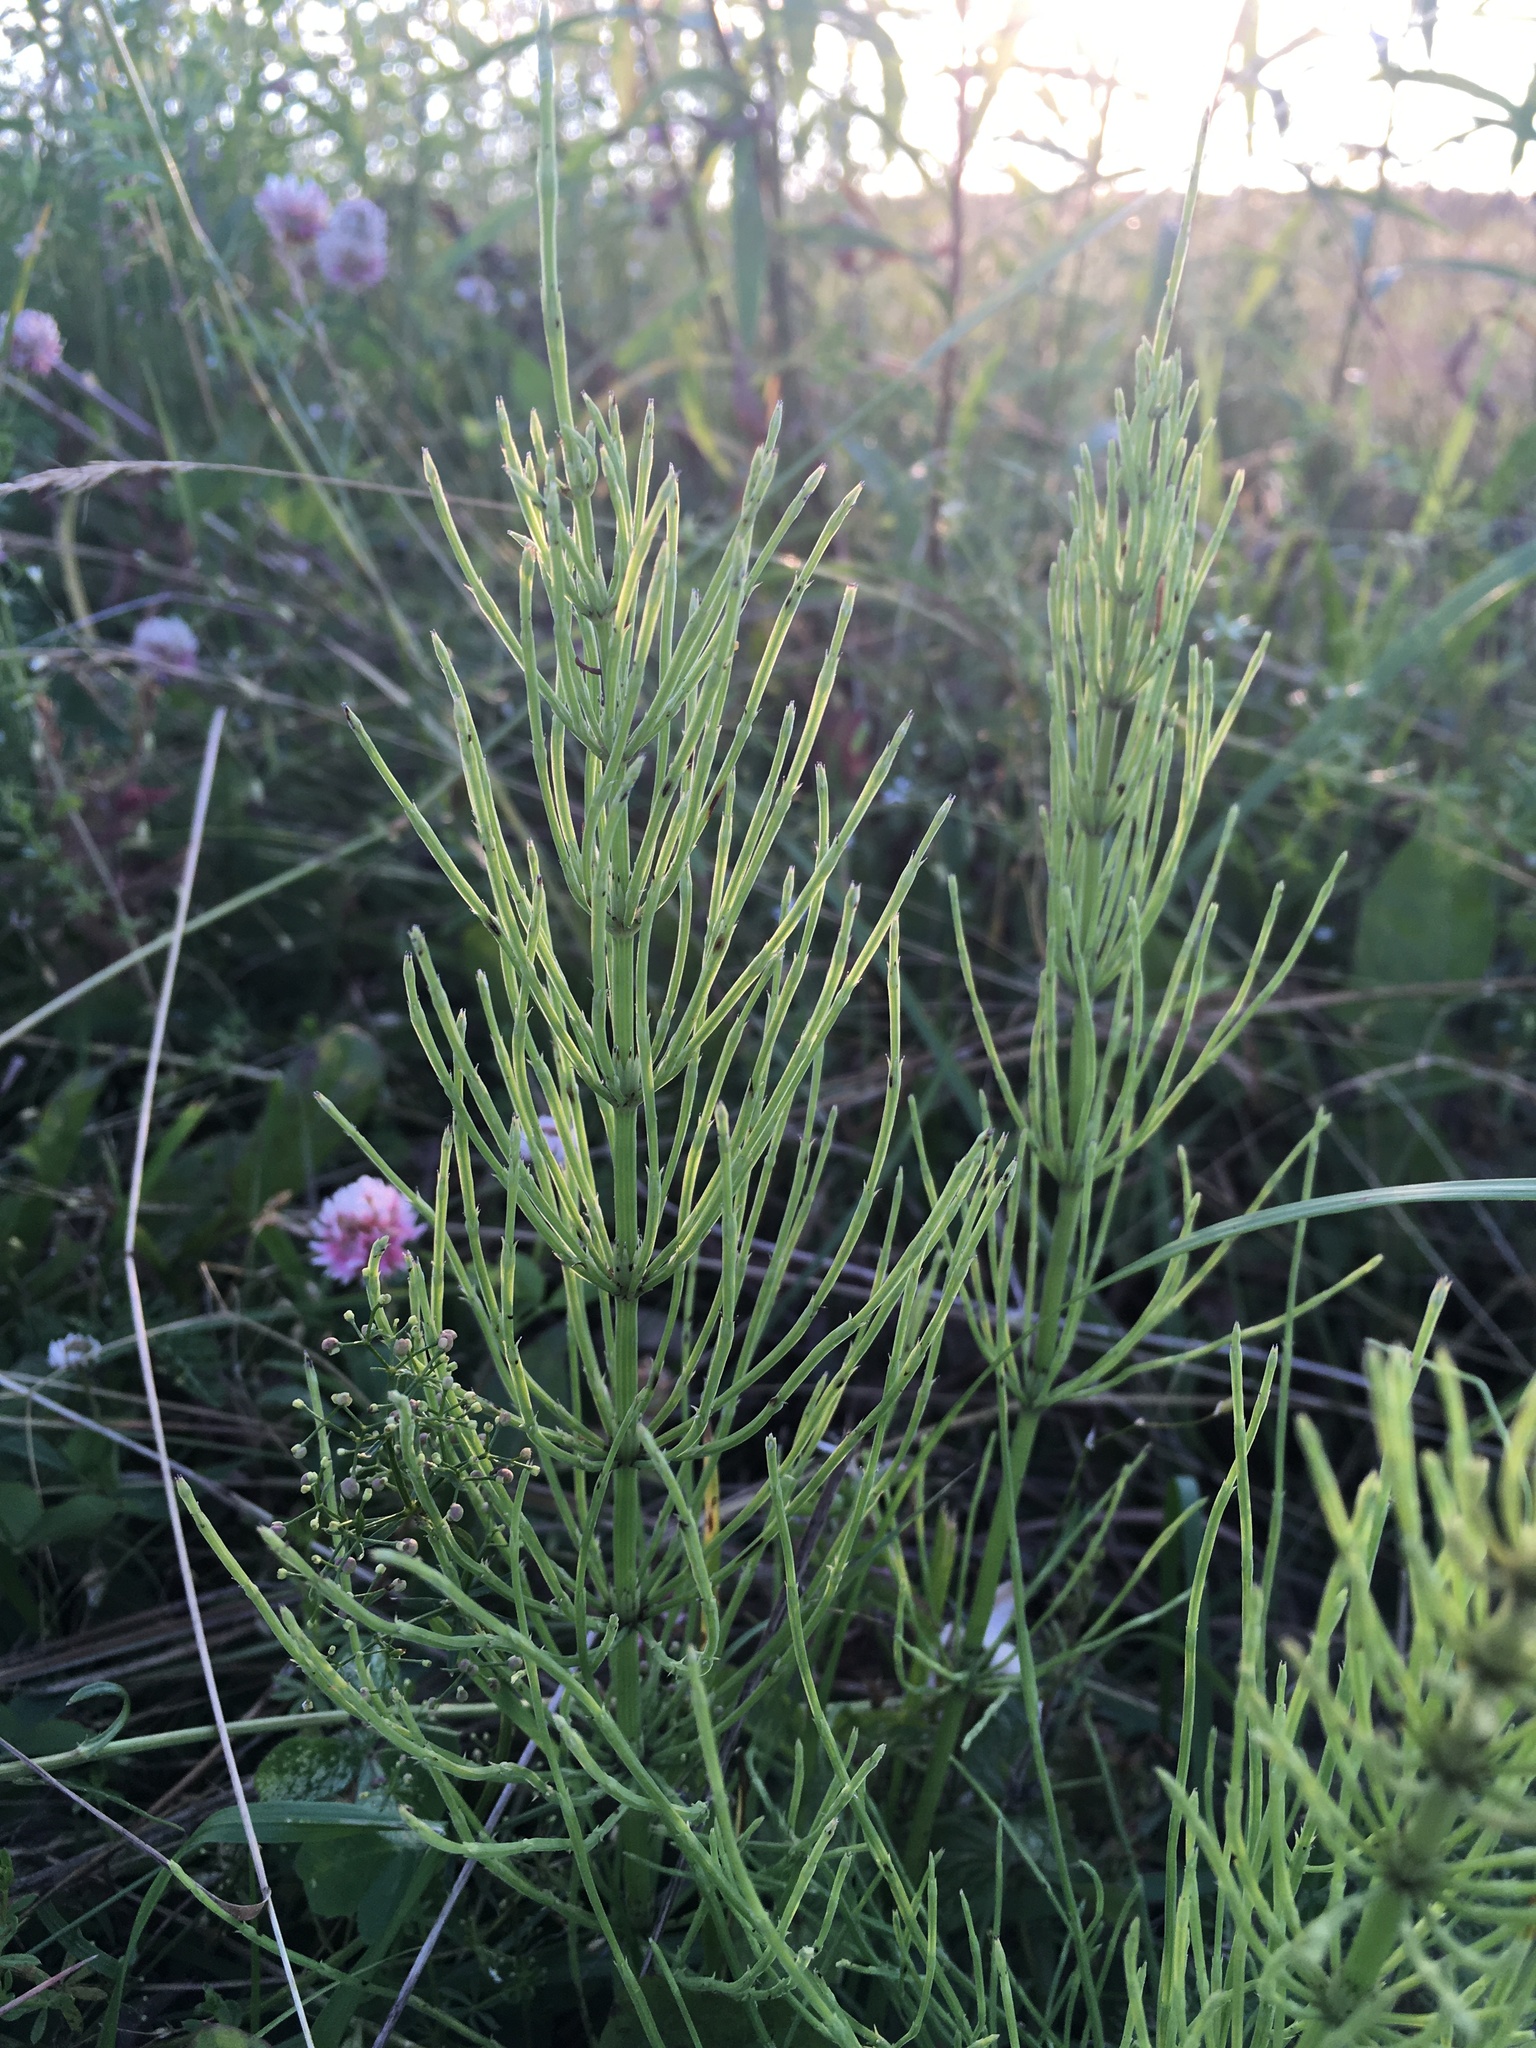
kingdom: Plantae
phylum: Tracheophyta
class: Polypodiopsida
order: Equisetales
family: Equisetaceae
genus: Equisetum
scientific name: Equisetum arvense
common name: Field horsetail
